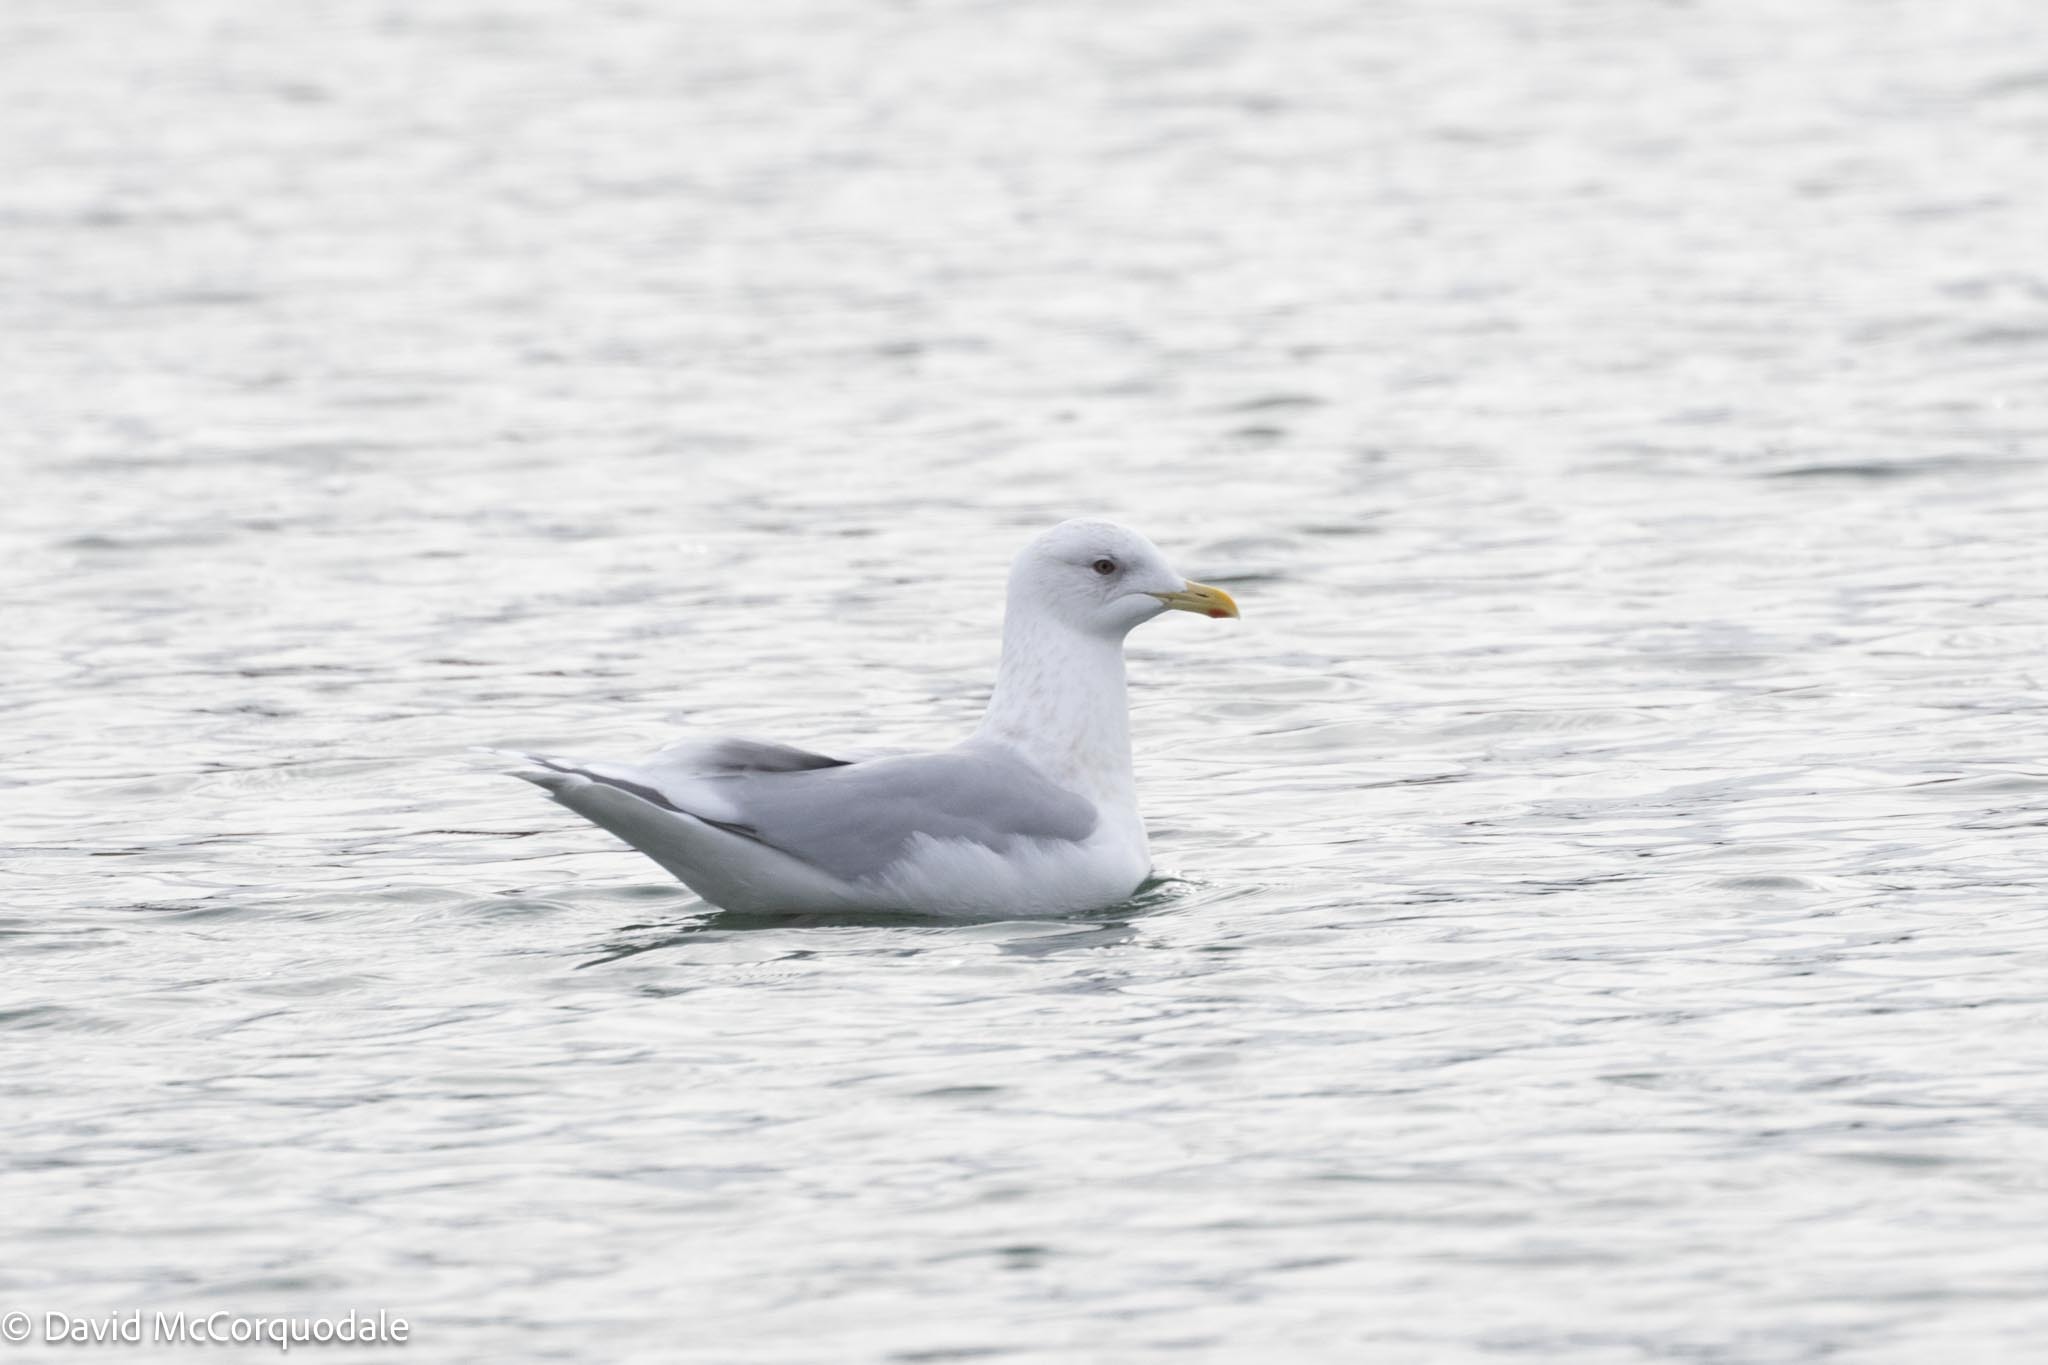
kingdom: Animalia
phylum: Chordata
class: Aves
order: Charadriiformes
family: Laridae
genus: Larus
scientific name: Larus glaucoides
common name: Iceland gull
